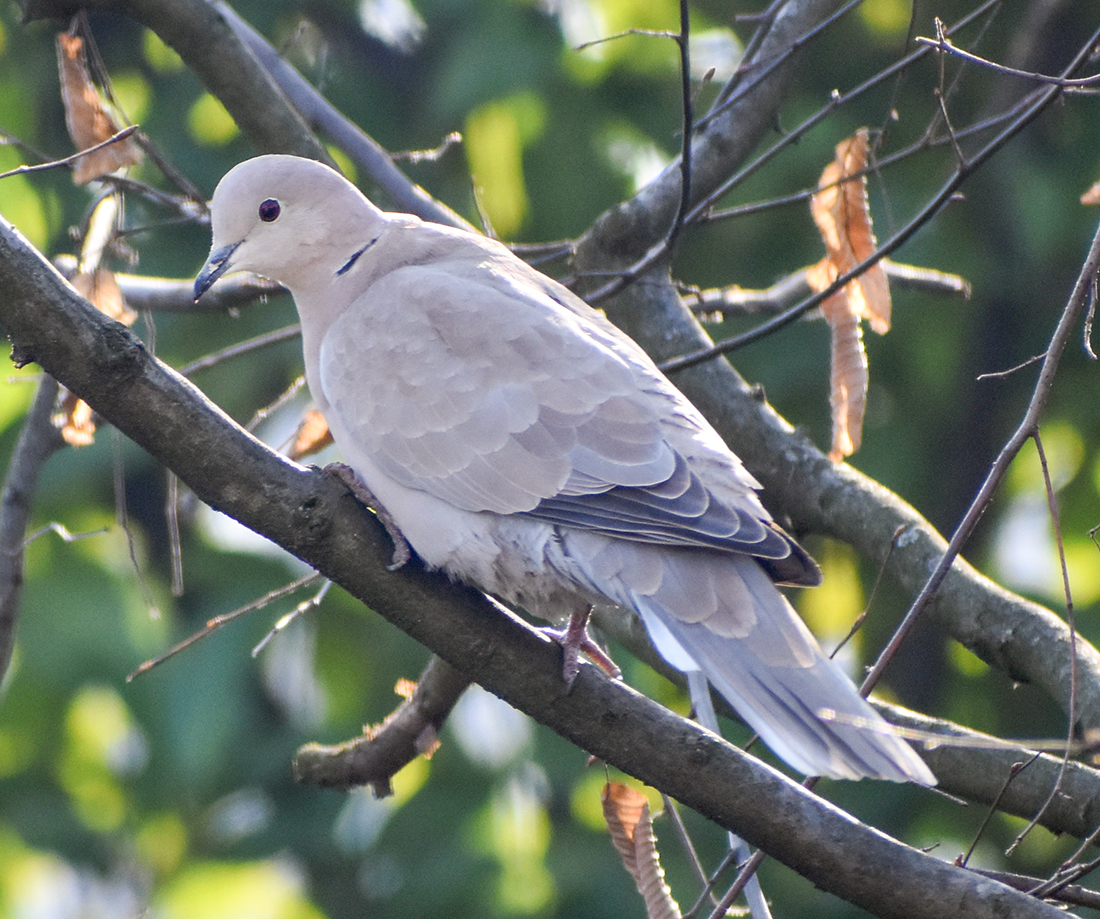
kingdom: Animalia
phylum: Chordata
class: Aves
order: Columbiformes
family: Columbidae
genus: Streptopelia
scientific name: Streptopelia decaocto
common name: Eurasian collared dove
